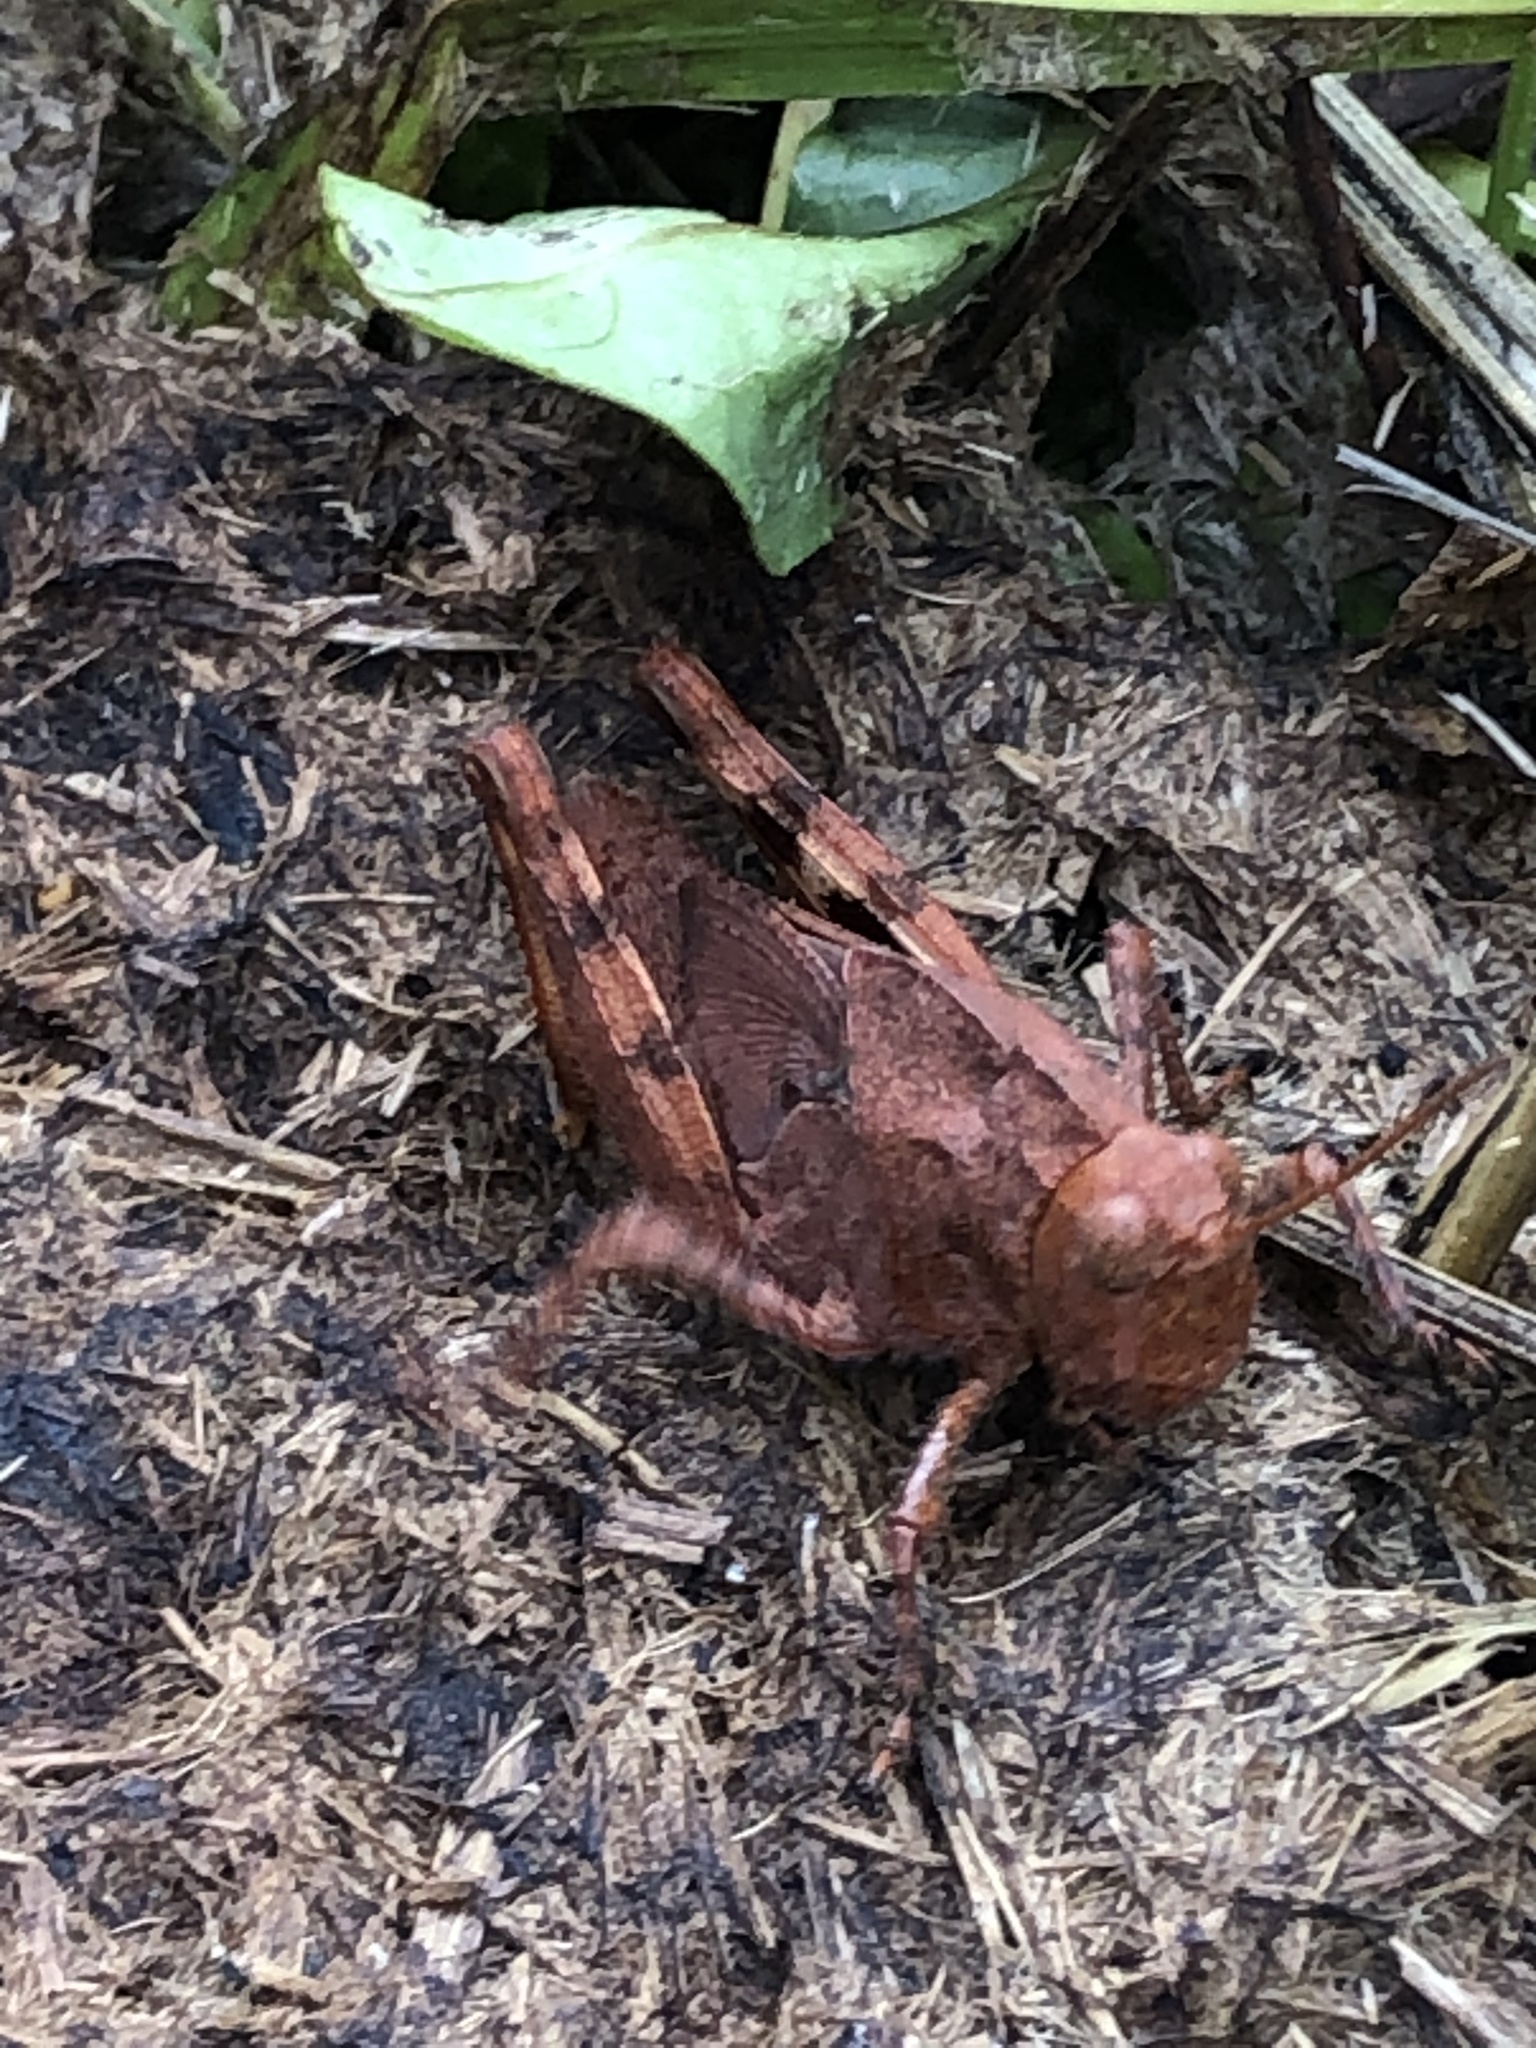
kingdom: Animalia
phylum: Arthropoda
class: Insecta
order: Orthoptera
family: Acrididae
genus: Dissosteira
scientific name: Dissosteira carolina
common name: Carolina grasshopper
